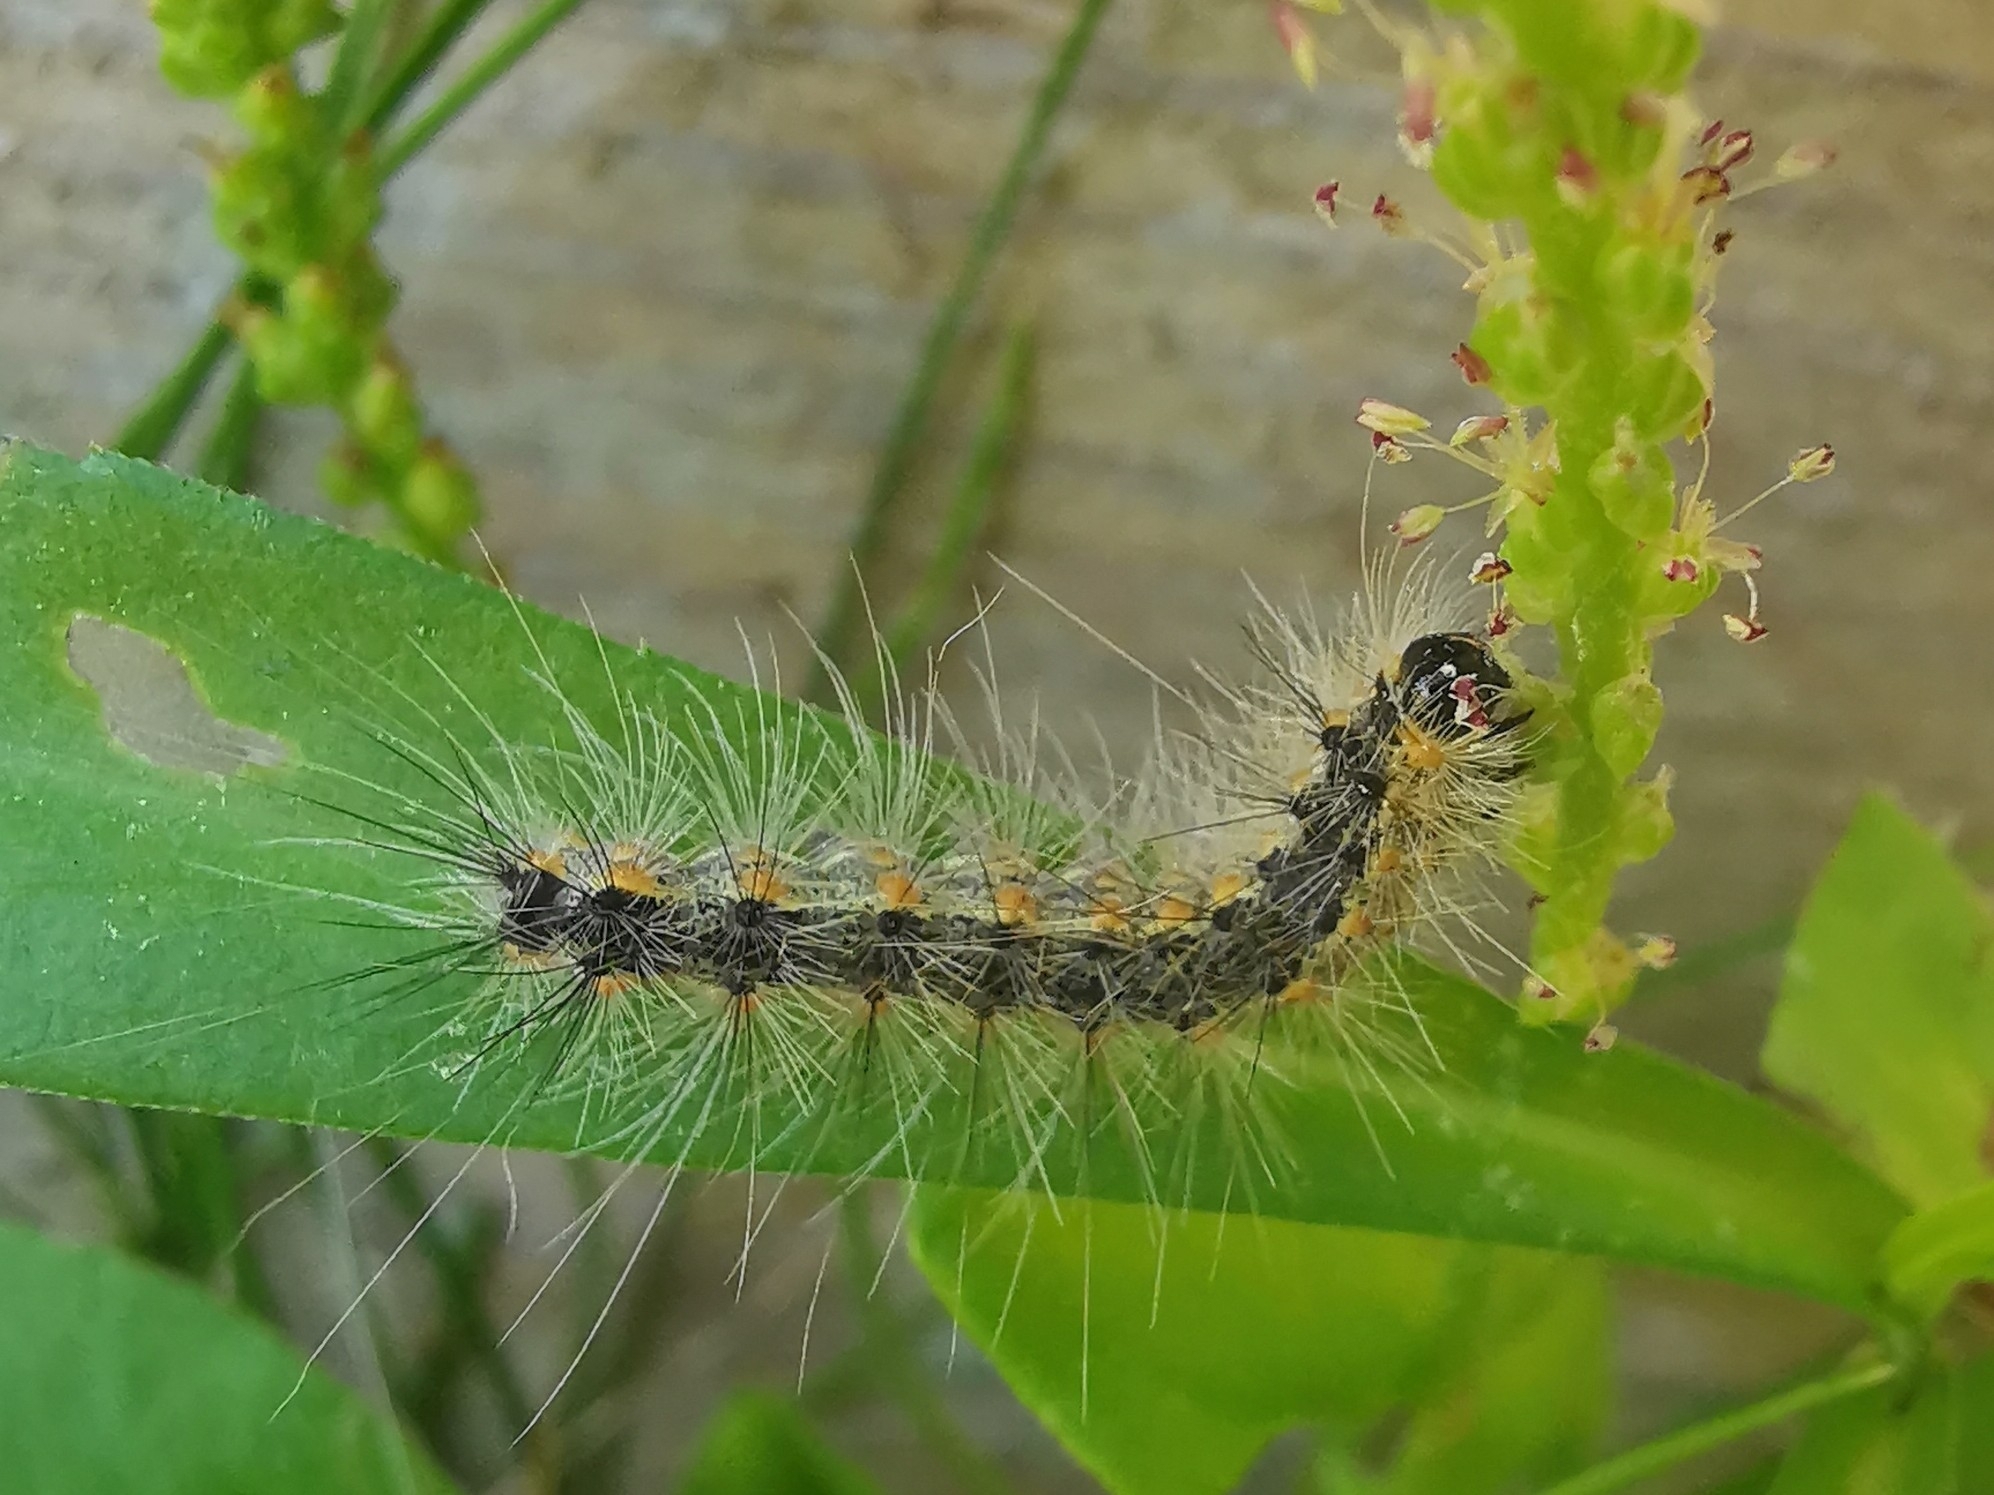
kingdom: Animalia
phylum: Arthropoda
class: Insecta
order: Lepidoptera
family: Erebidae
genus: Hyphantria
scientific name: Hyphantria cunea
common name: American white moth
